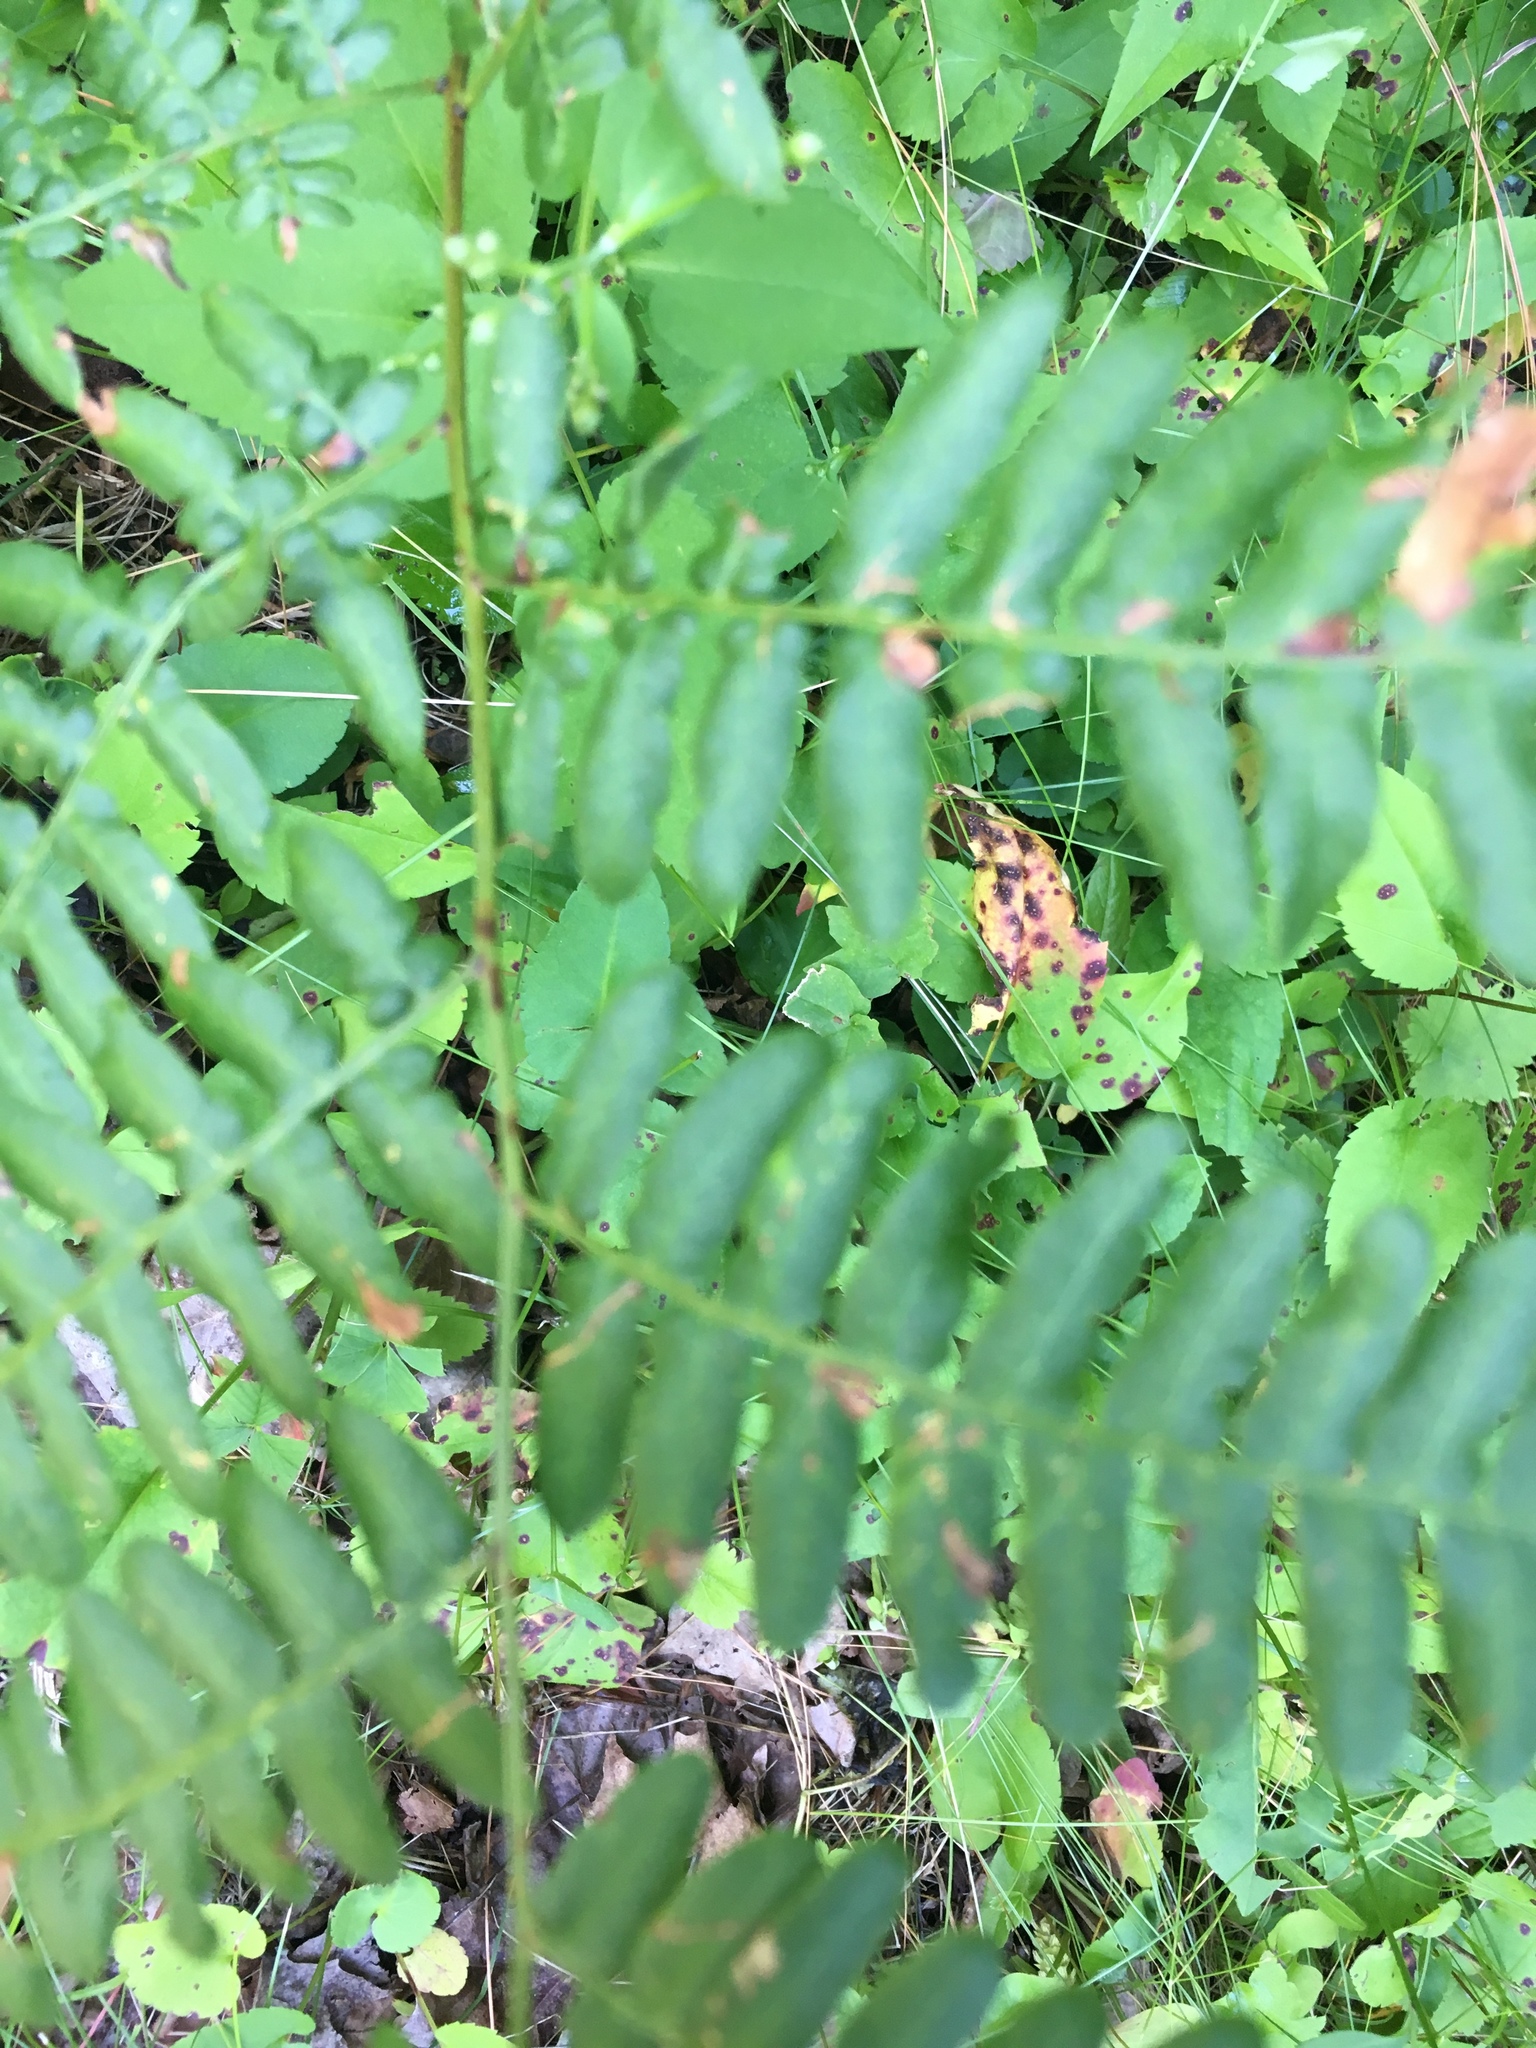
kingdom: Plantae
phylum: Tracheophyta
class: Polypodiopsida
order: Polypodiales
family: Dennstaedtiaceae
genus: Pteridium
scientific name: Pteridium aquilinum
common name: Bracken
